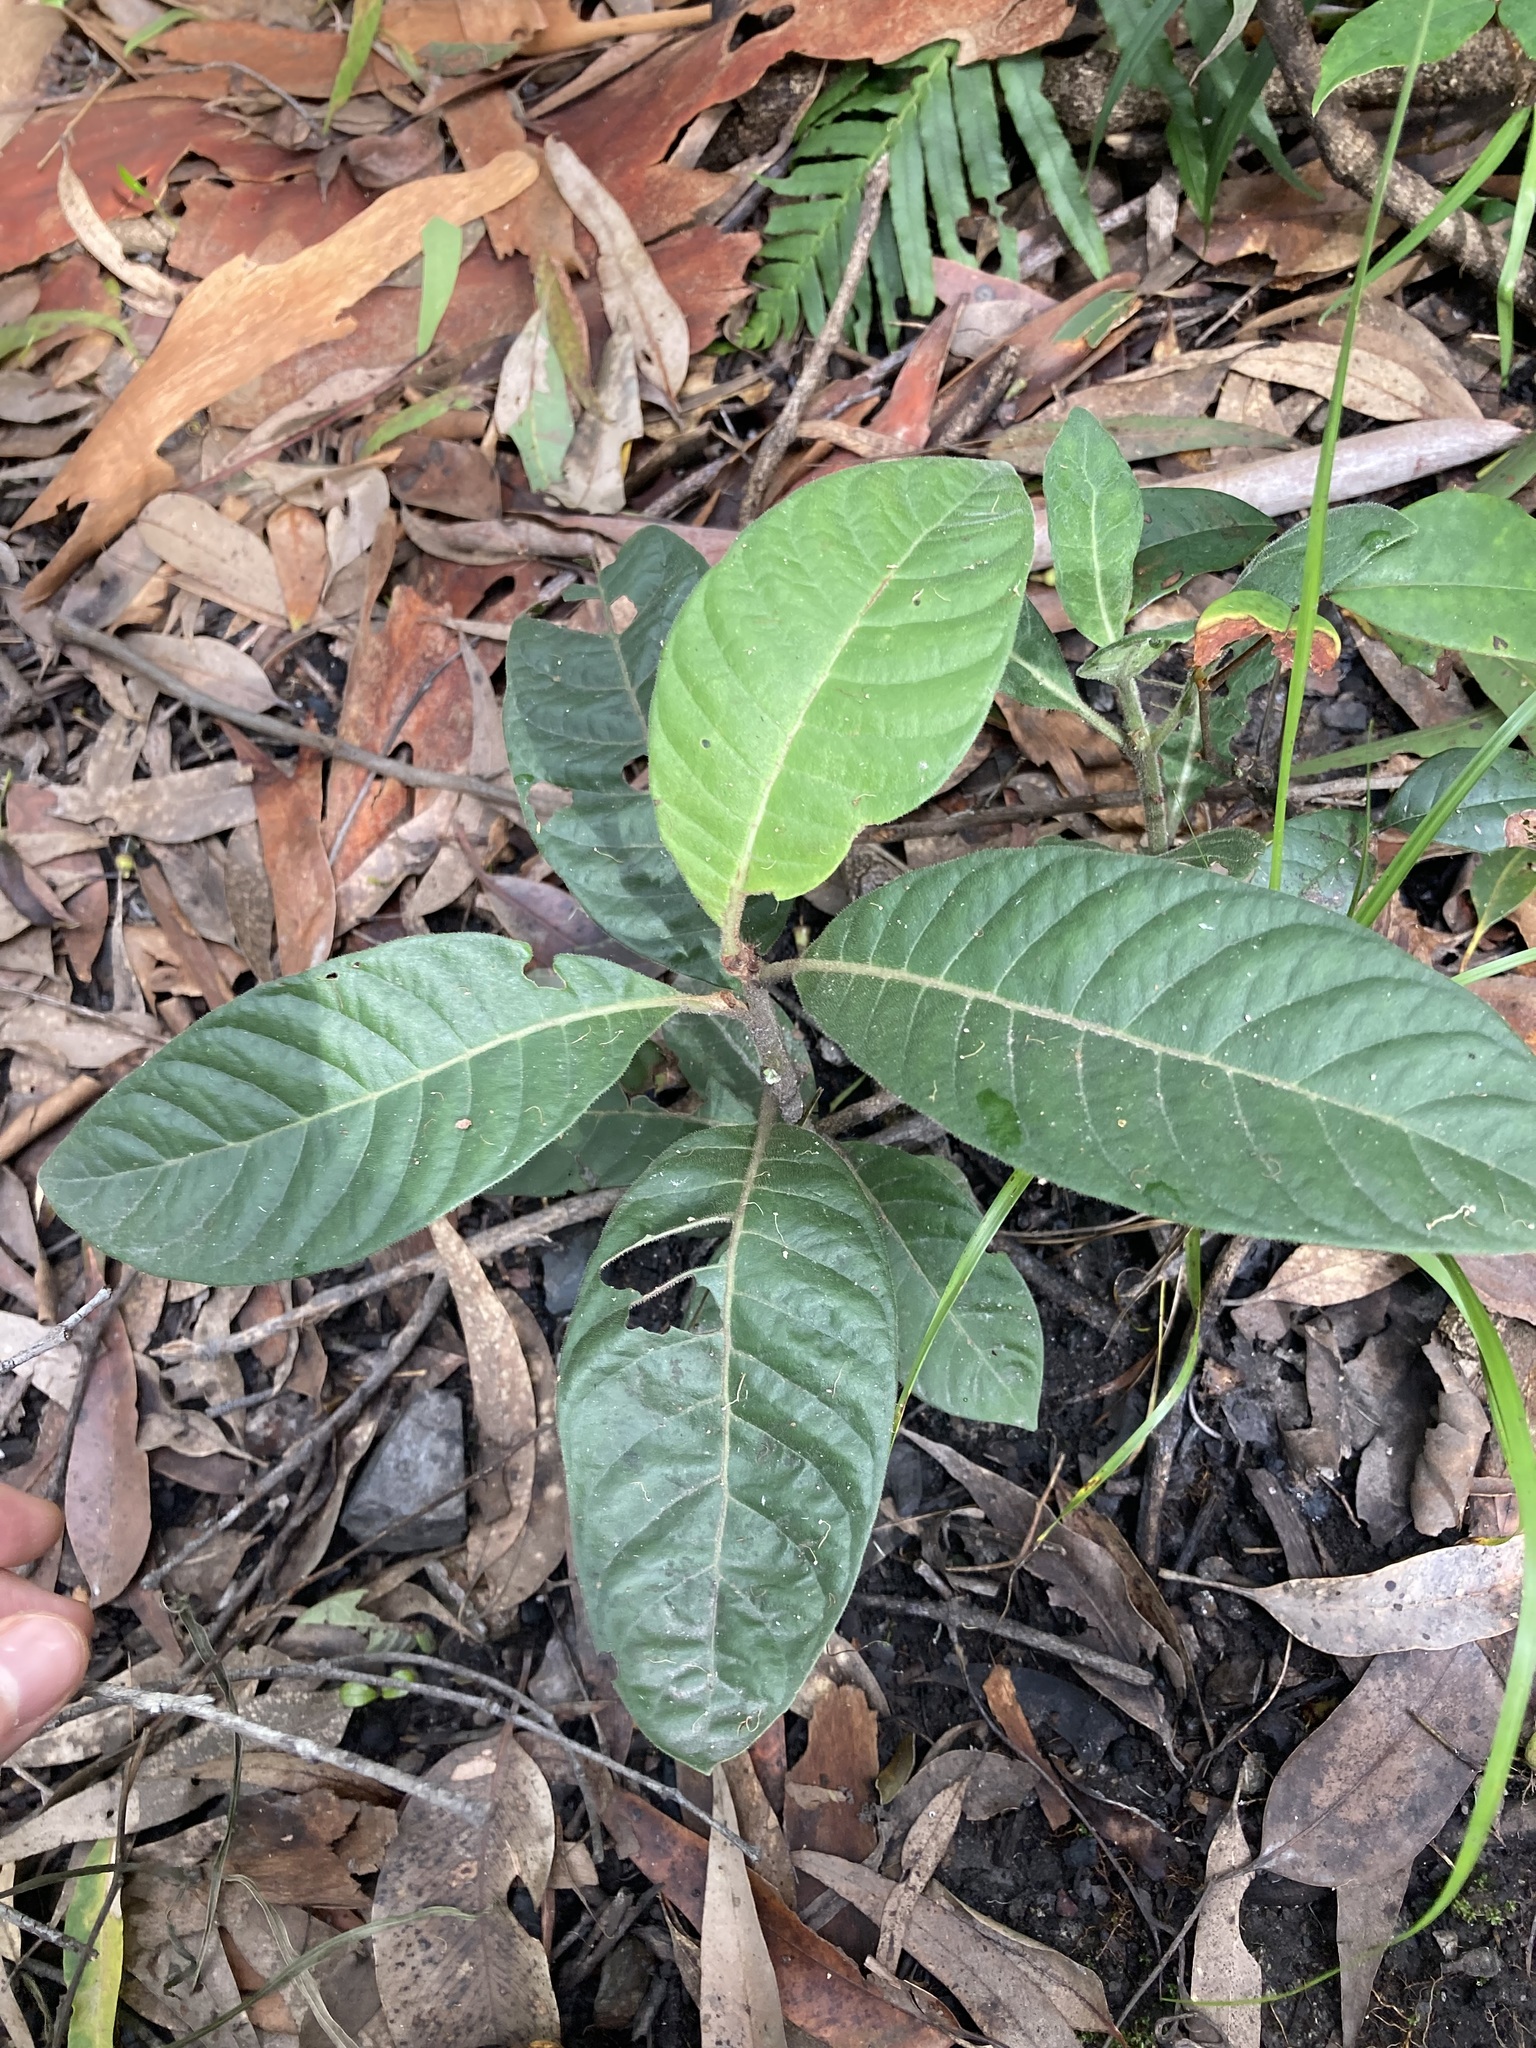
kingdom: Plantae
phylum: Tracheophyta
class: Magnoliopsida
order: Gentianales
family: Rubiaceae
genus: Psychotria
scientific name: Psychotria loniceroides
